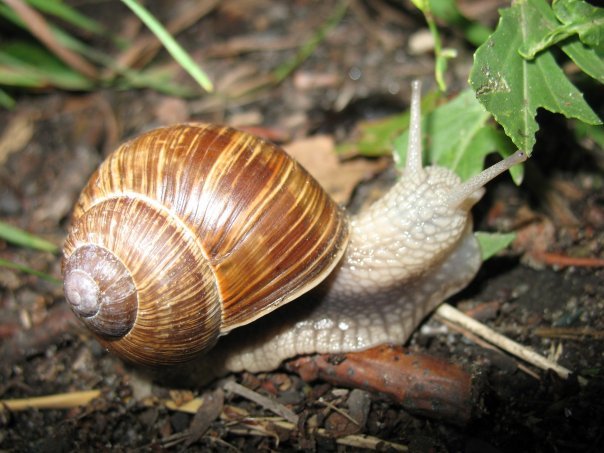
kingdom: Animalia
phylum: Mollusca
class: Gastropoda
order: Stylommatophora
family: Helicidae
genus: Helix
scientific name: Helix pomatia
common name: Roman snail
